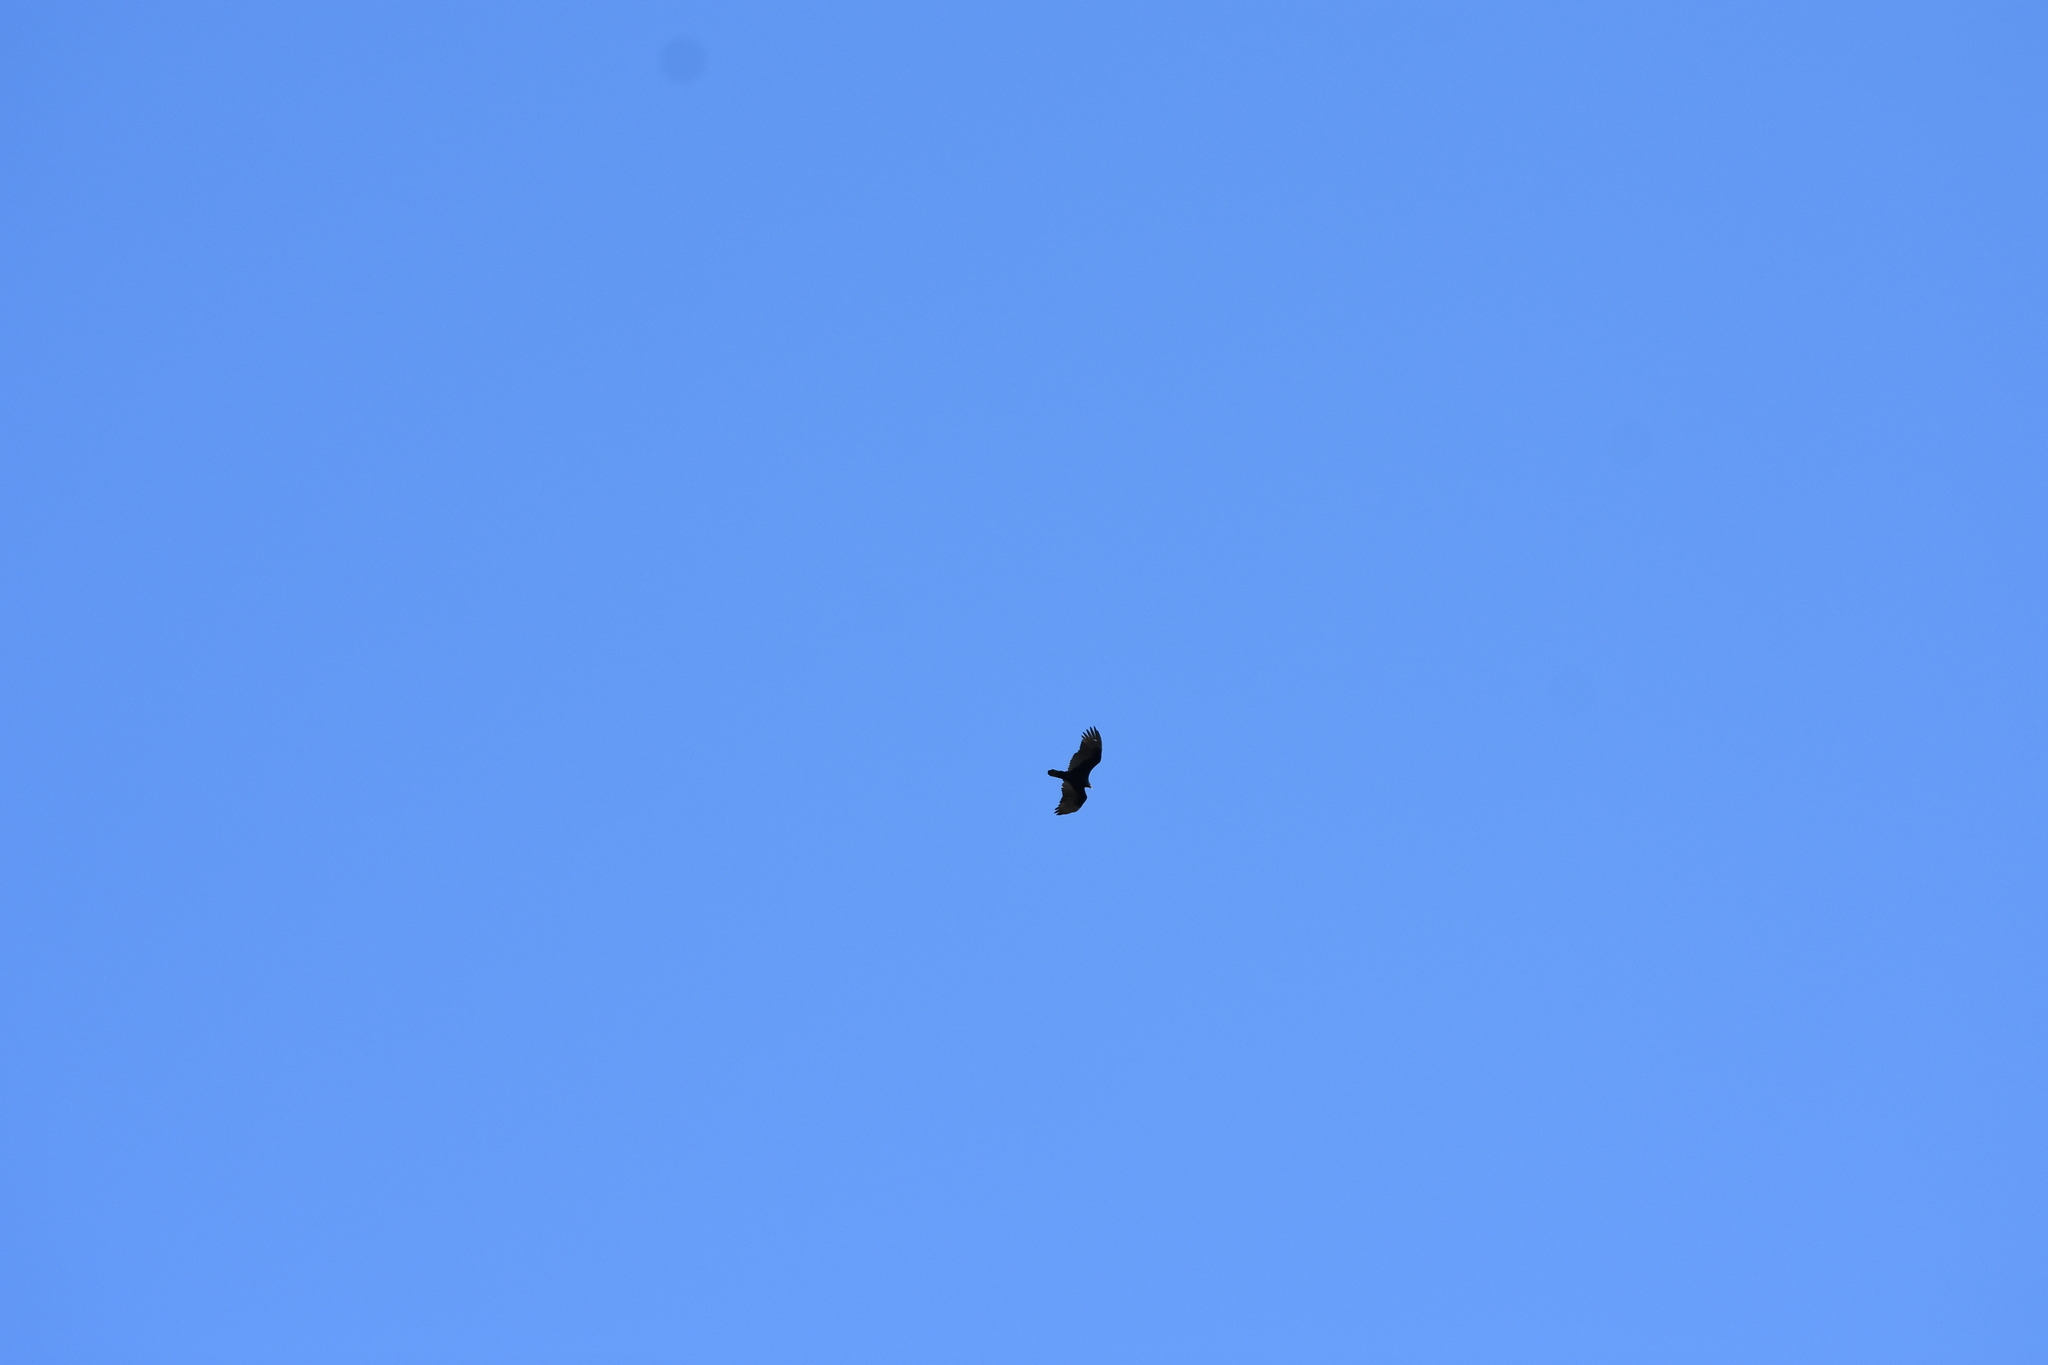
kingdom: Animalia
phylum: Chordata
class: Aves
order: Accipitriformes
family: Cathartidae
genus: Cathartes
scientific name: Cathartes aura
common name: Turkey vulture
